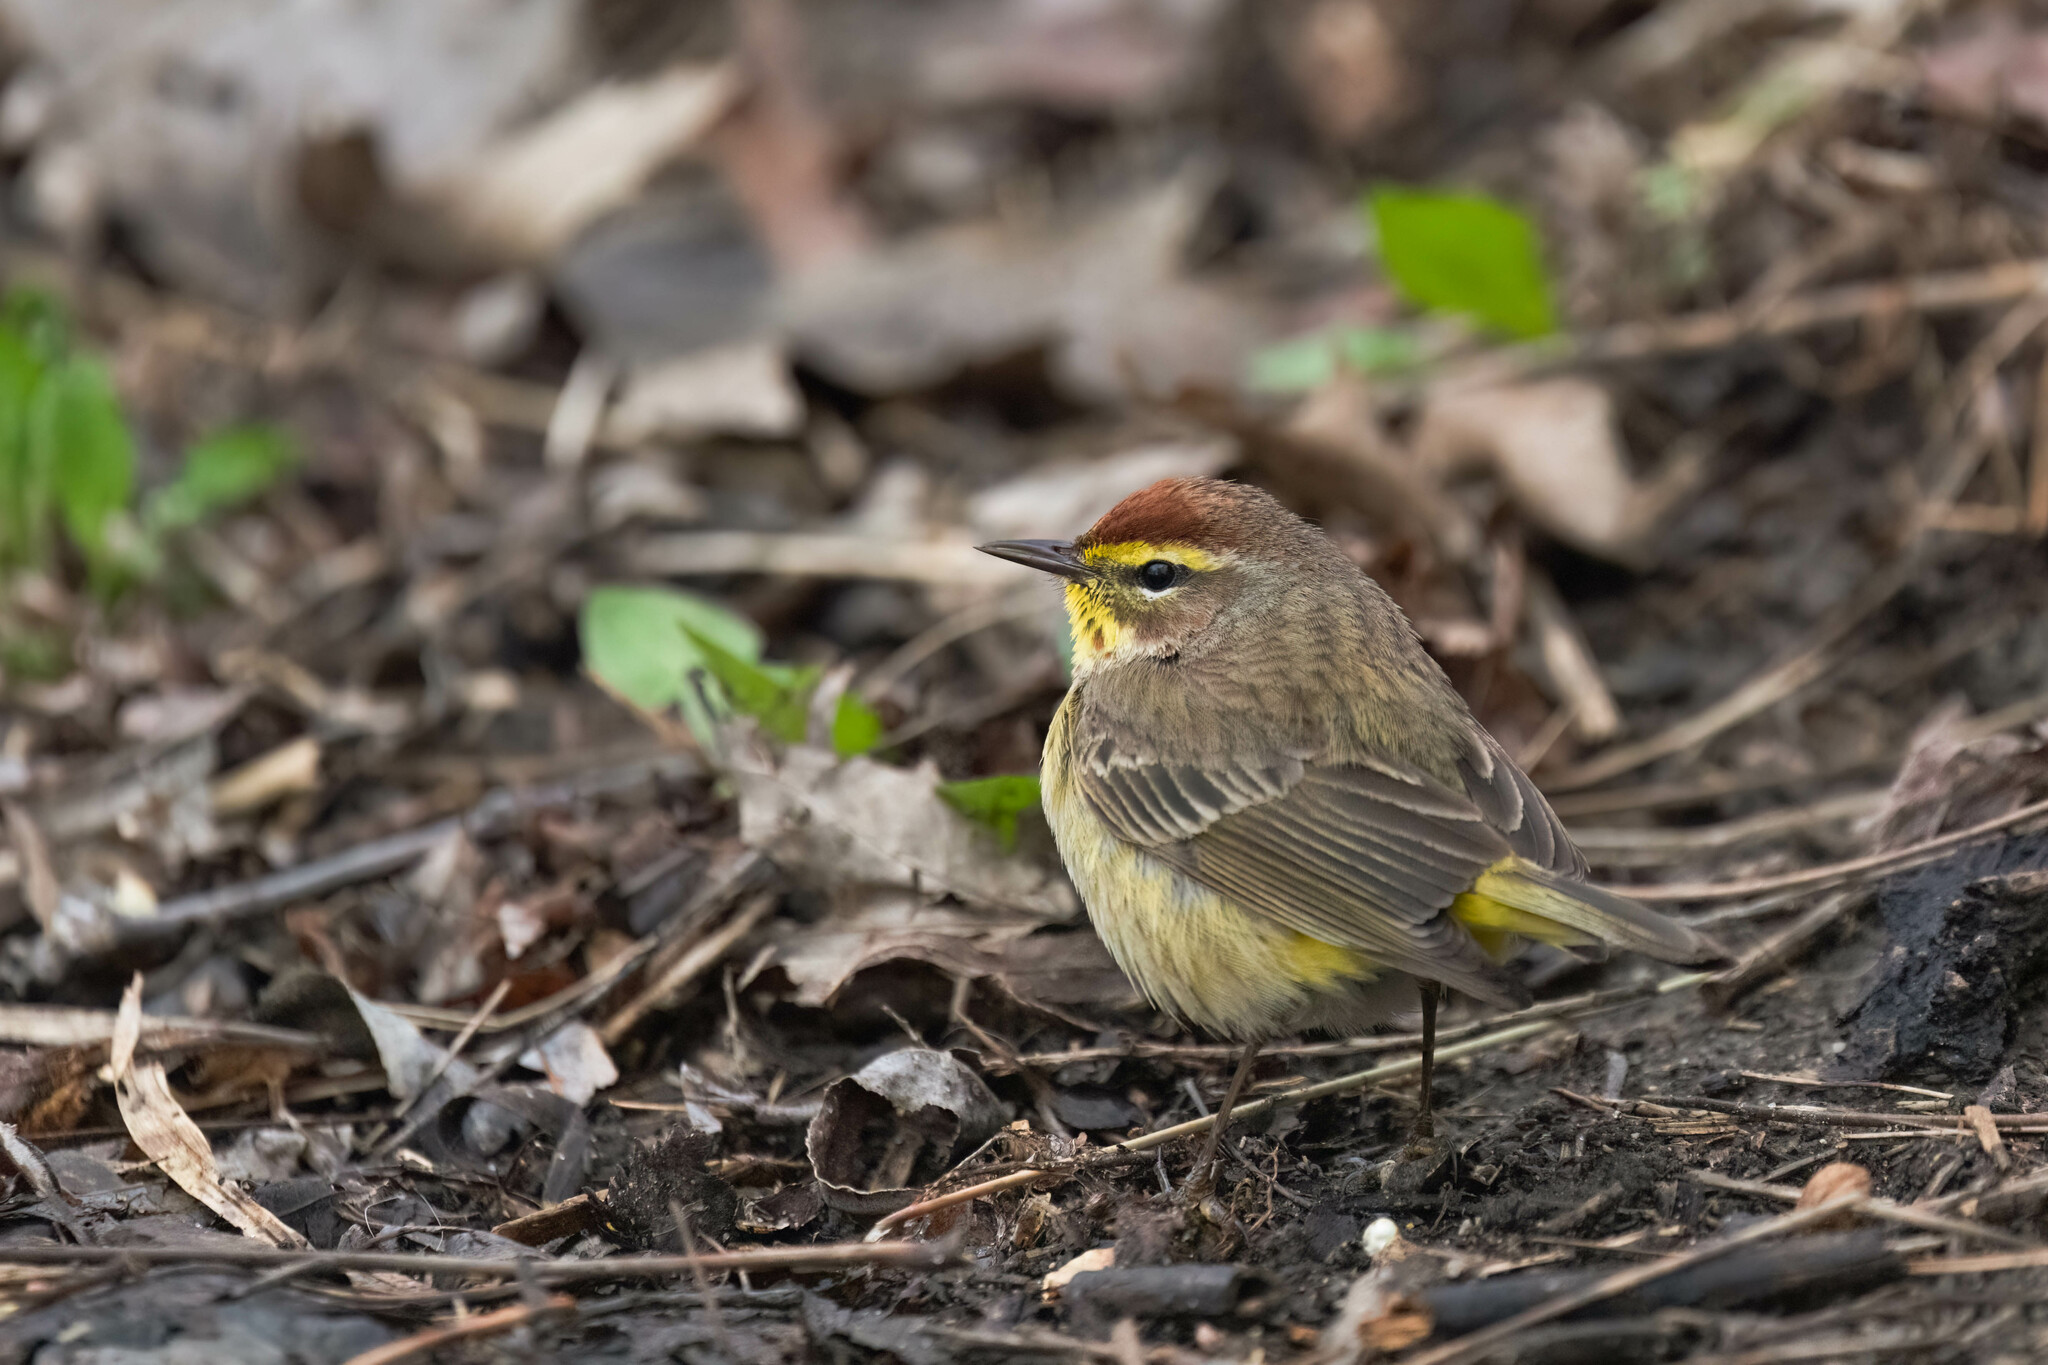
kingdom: Animalia
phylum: Chordata
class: Aves
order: Passeriformes
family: Parulidae
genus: Setophaga
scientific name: Setophaga palmarum
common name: Palm warbler
